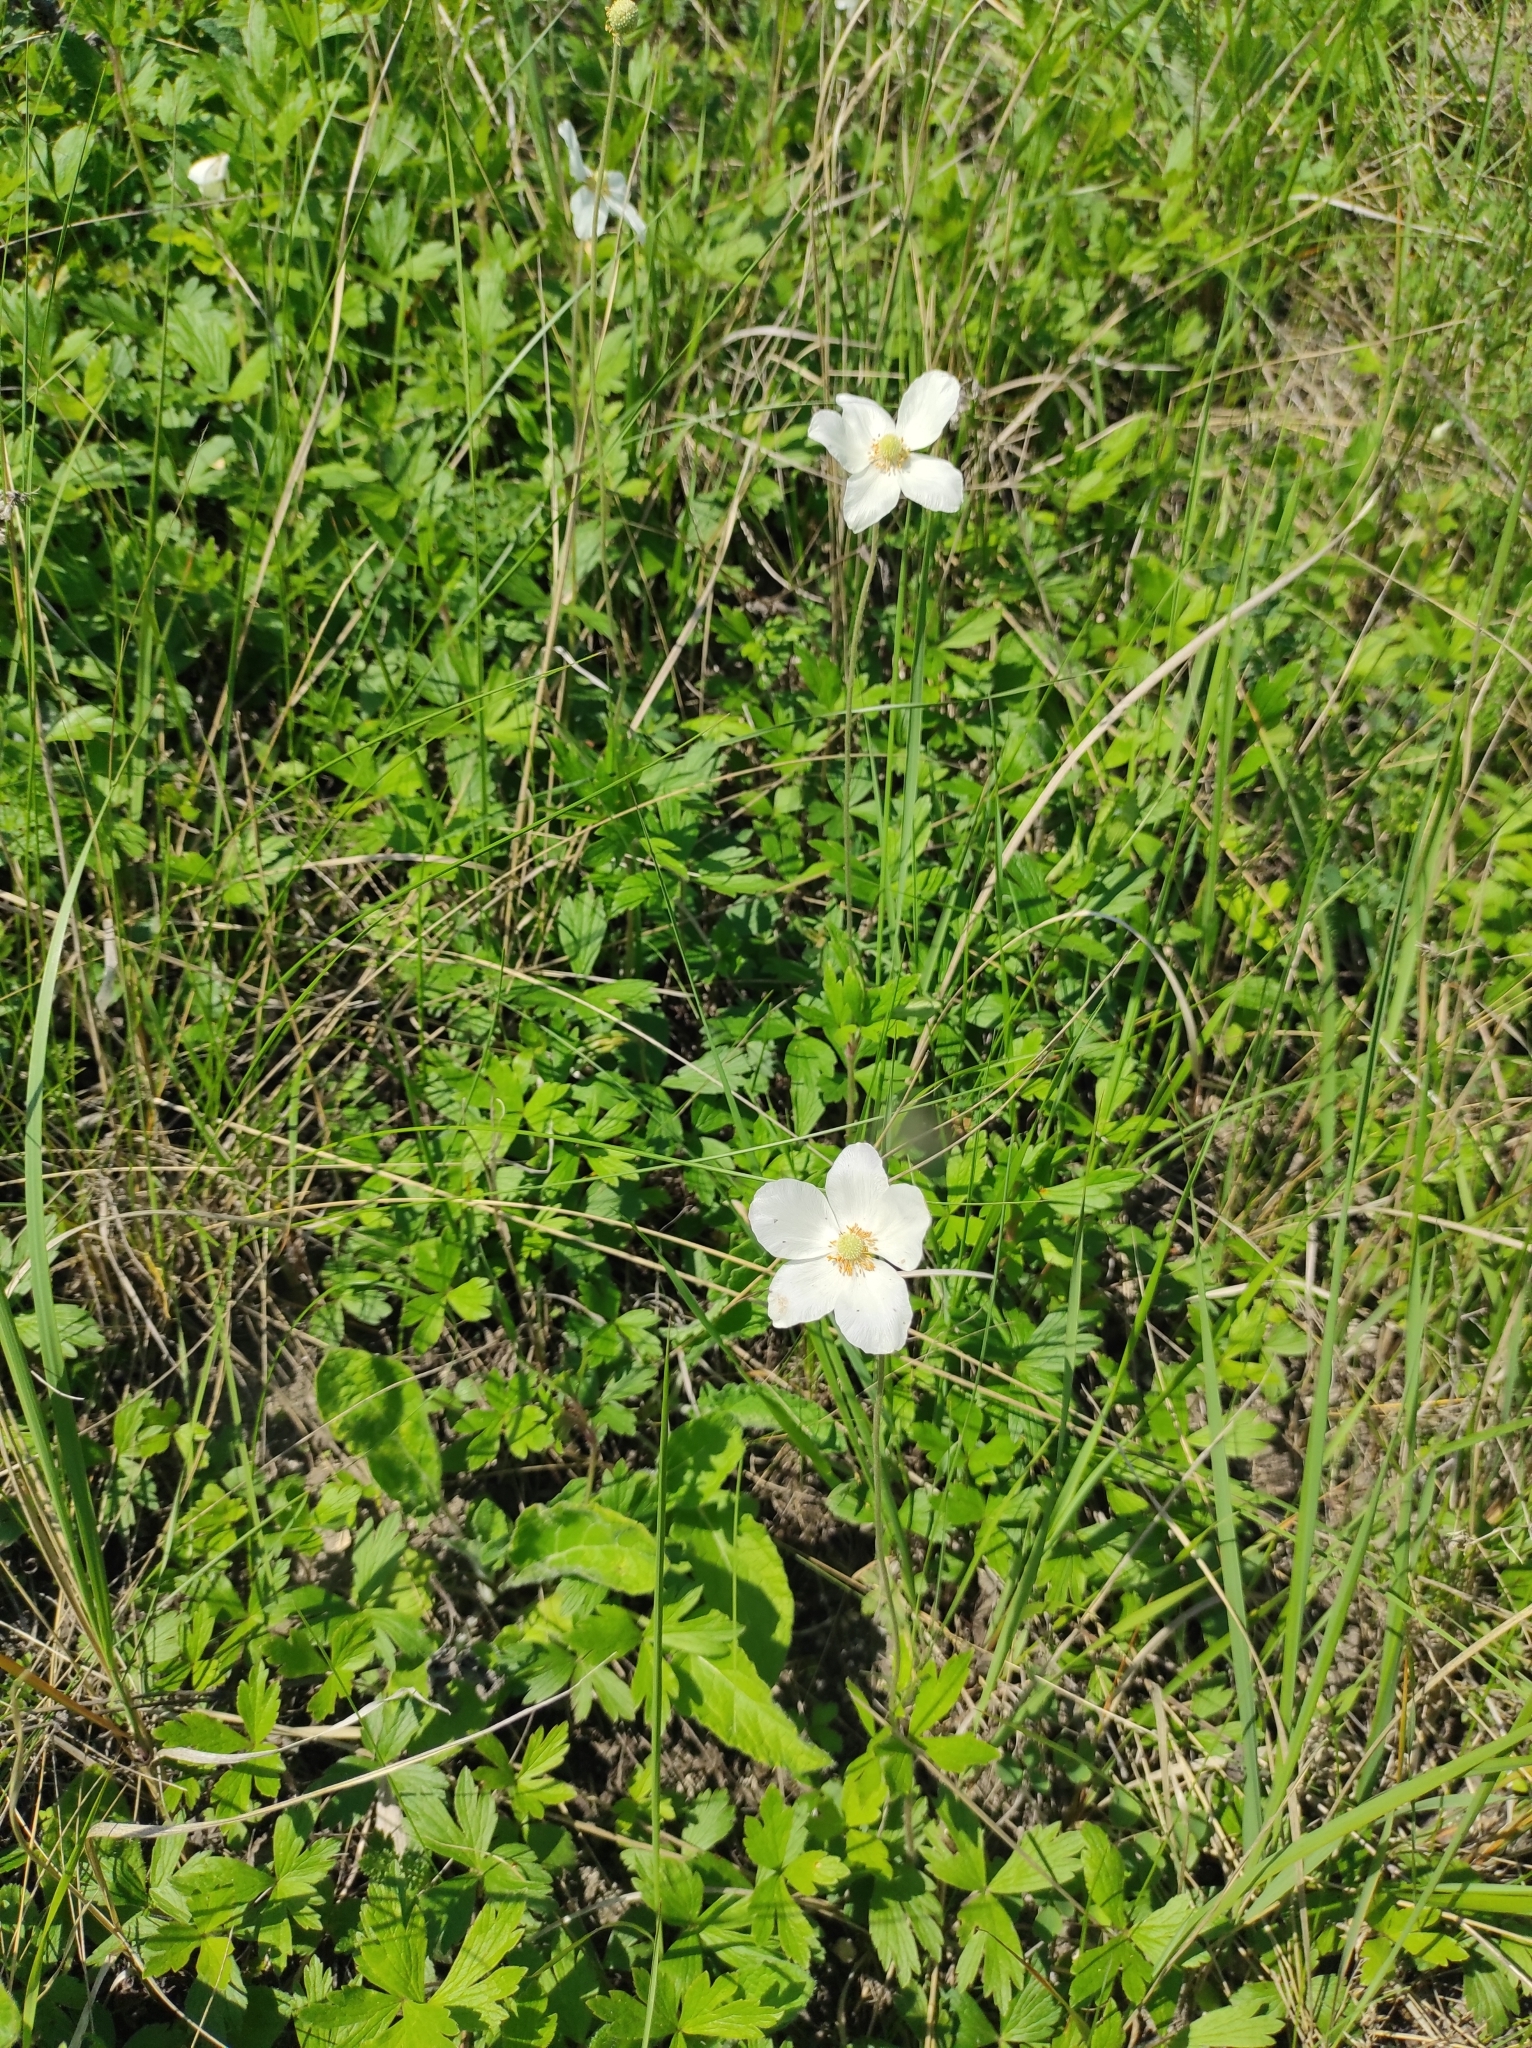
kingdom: Plantae
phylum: Tracheophyta
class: Magnoliopsida
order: Ranunculales
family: Ranunculaceae
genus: Anemone
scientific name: Anemone sylvestris
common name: Snowdrop anemone
